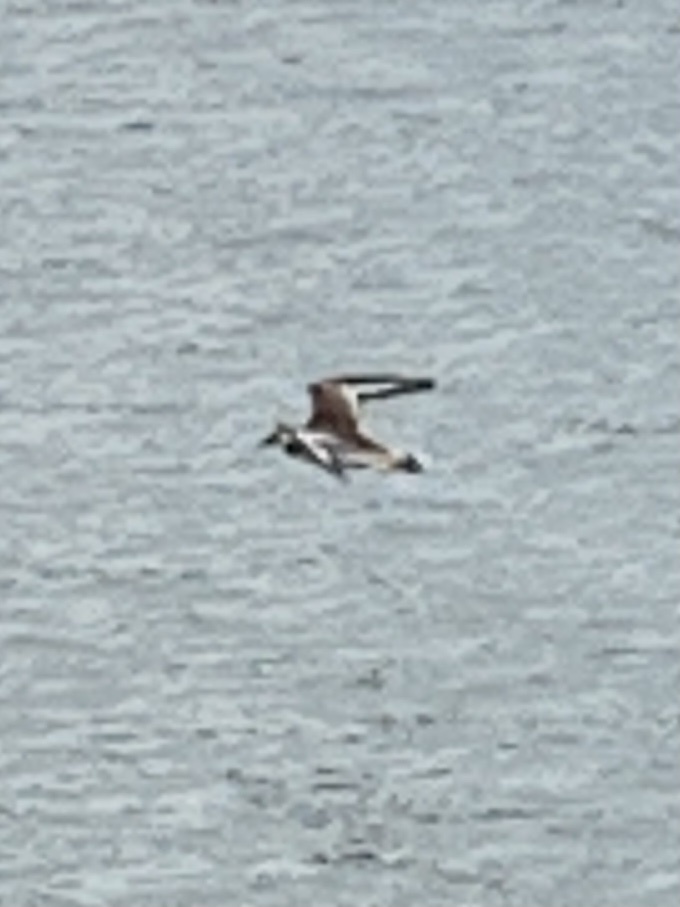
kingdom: Animalia
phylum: Chordata
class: Aves
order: Charadriiformes
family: Charadriidae
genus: Charadrius
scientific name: Charadrius vociferus
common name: Killdeer
